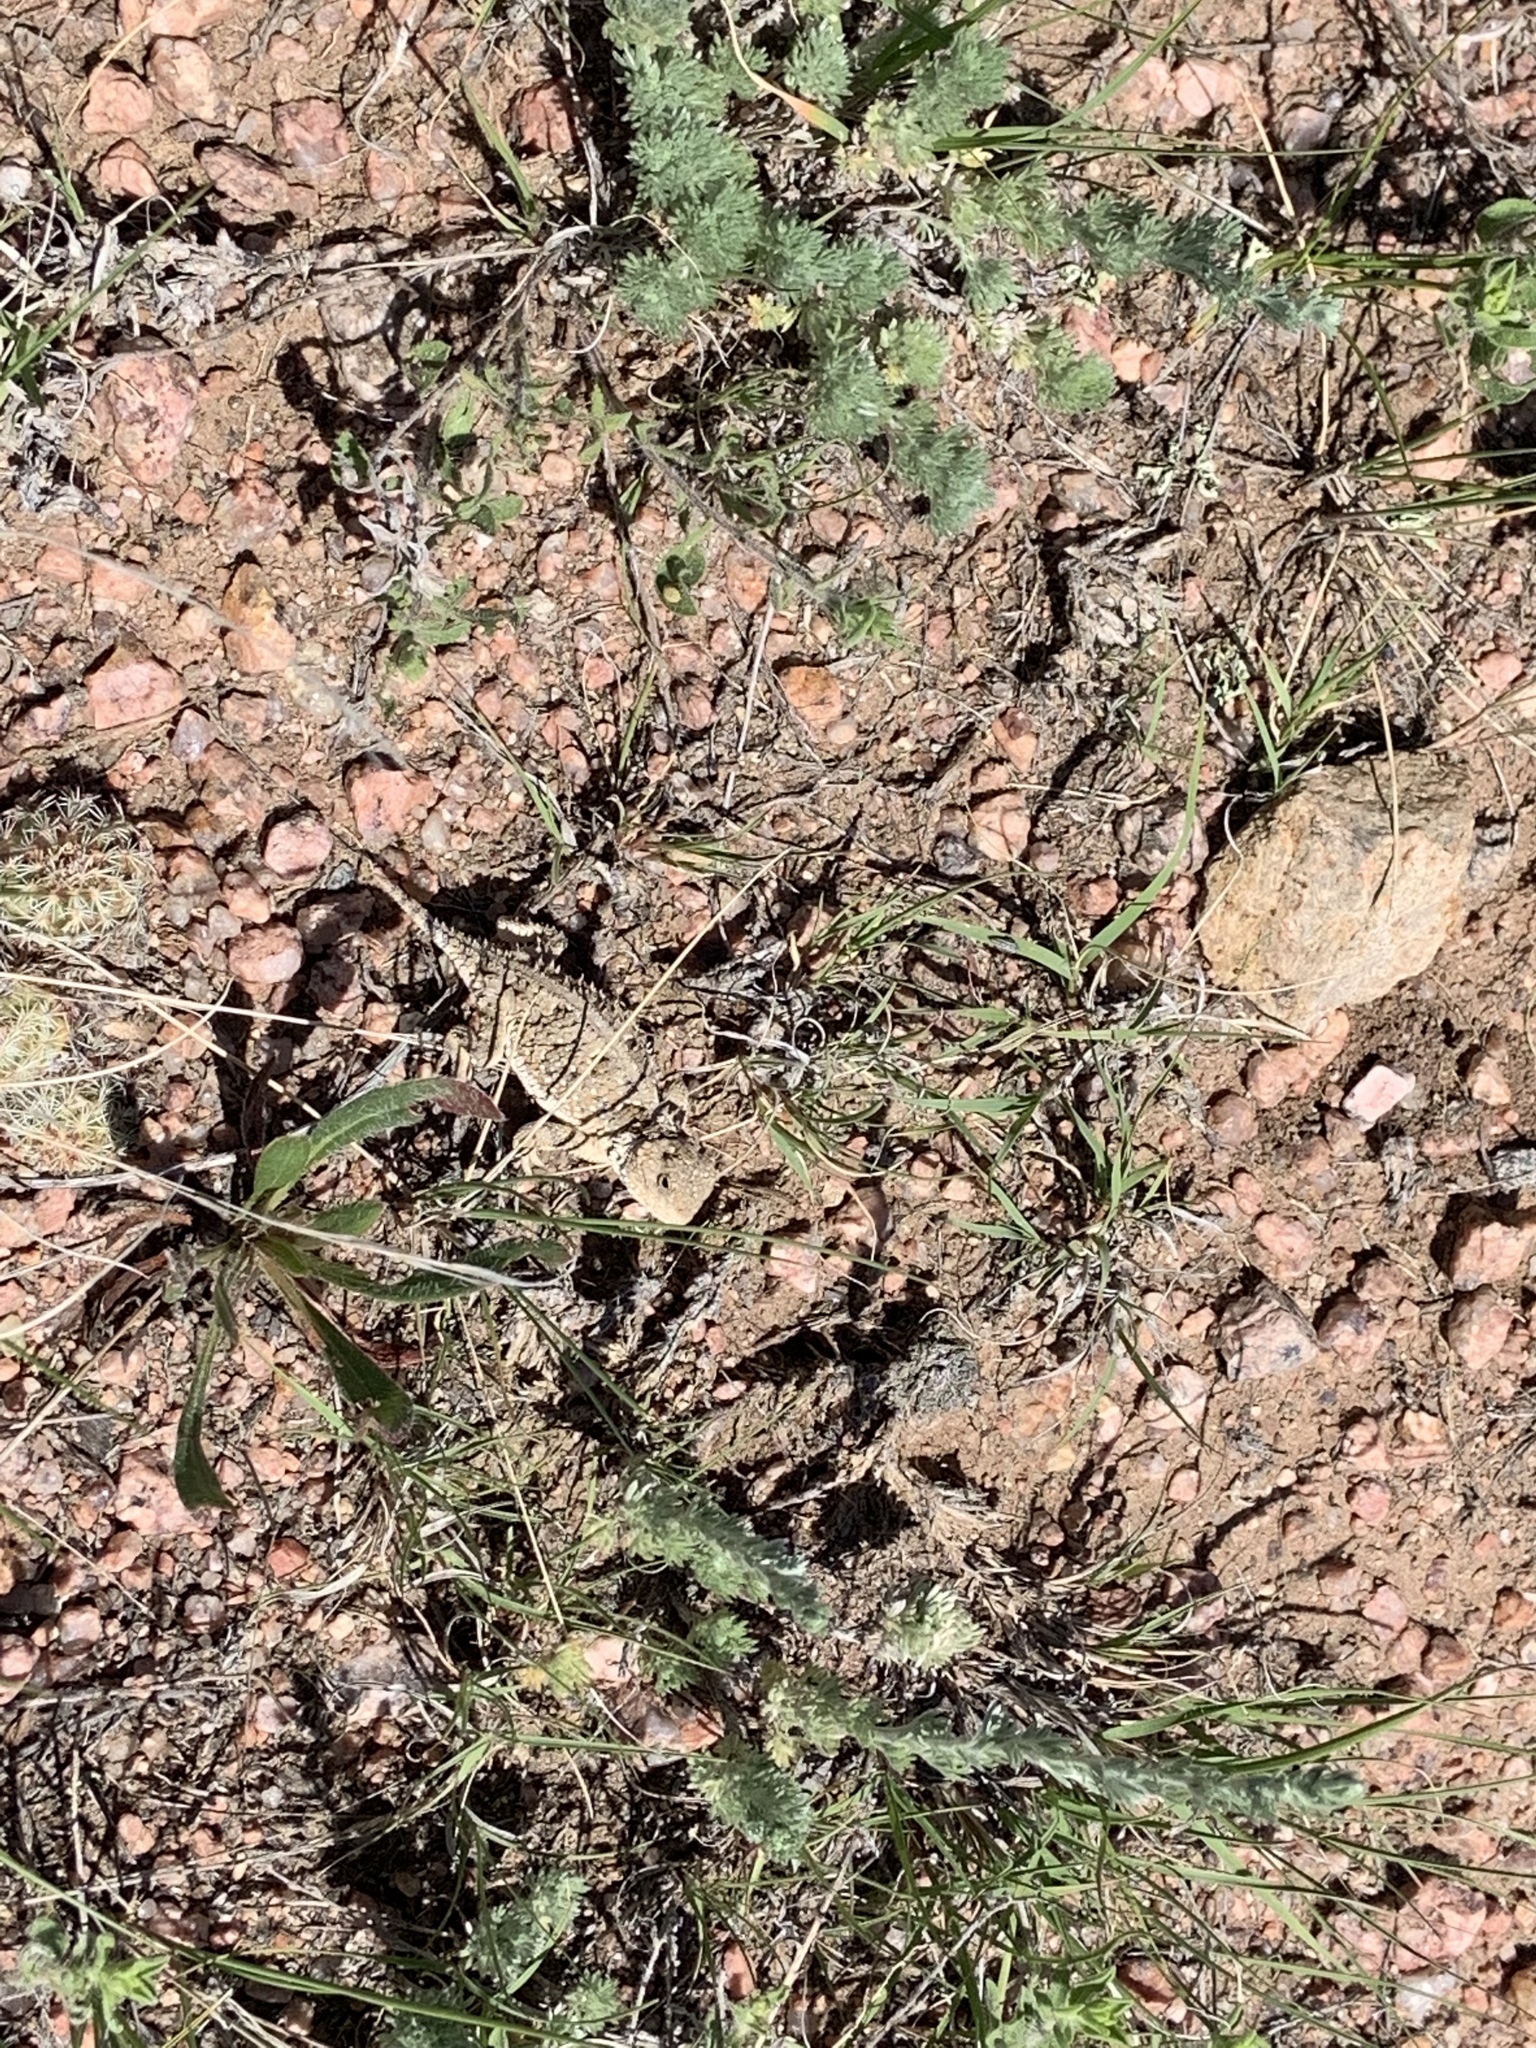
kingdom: Animalia
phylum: Chordata
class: Squamata
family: Phrynosomatidae
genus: Phrynosoma
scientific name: Phrynosoma hernandesi
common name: Greater short-horned lizard
